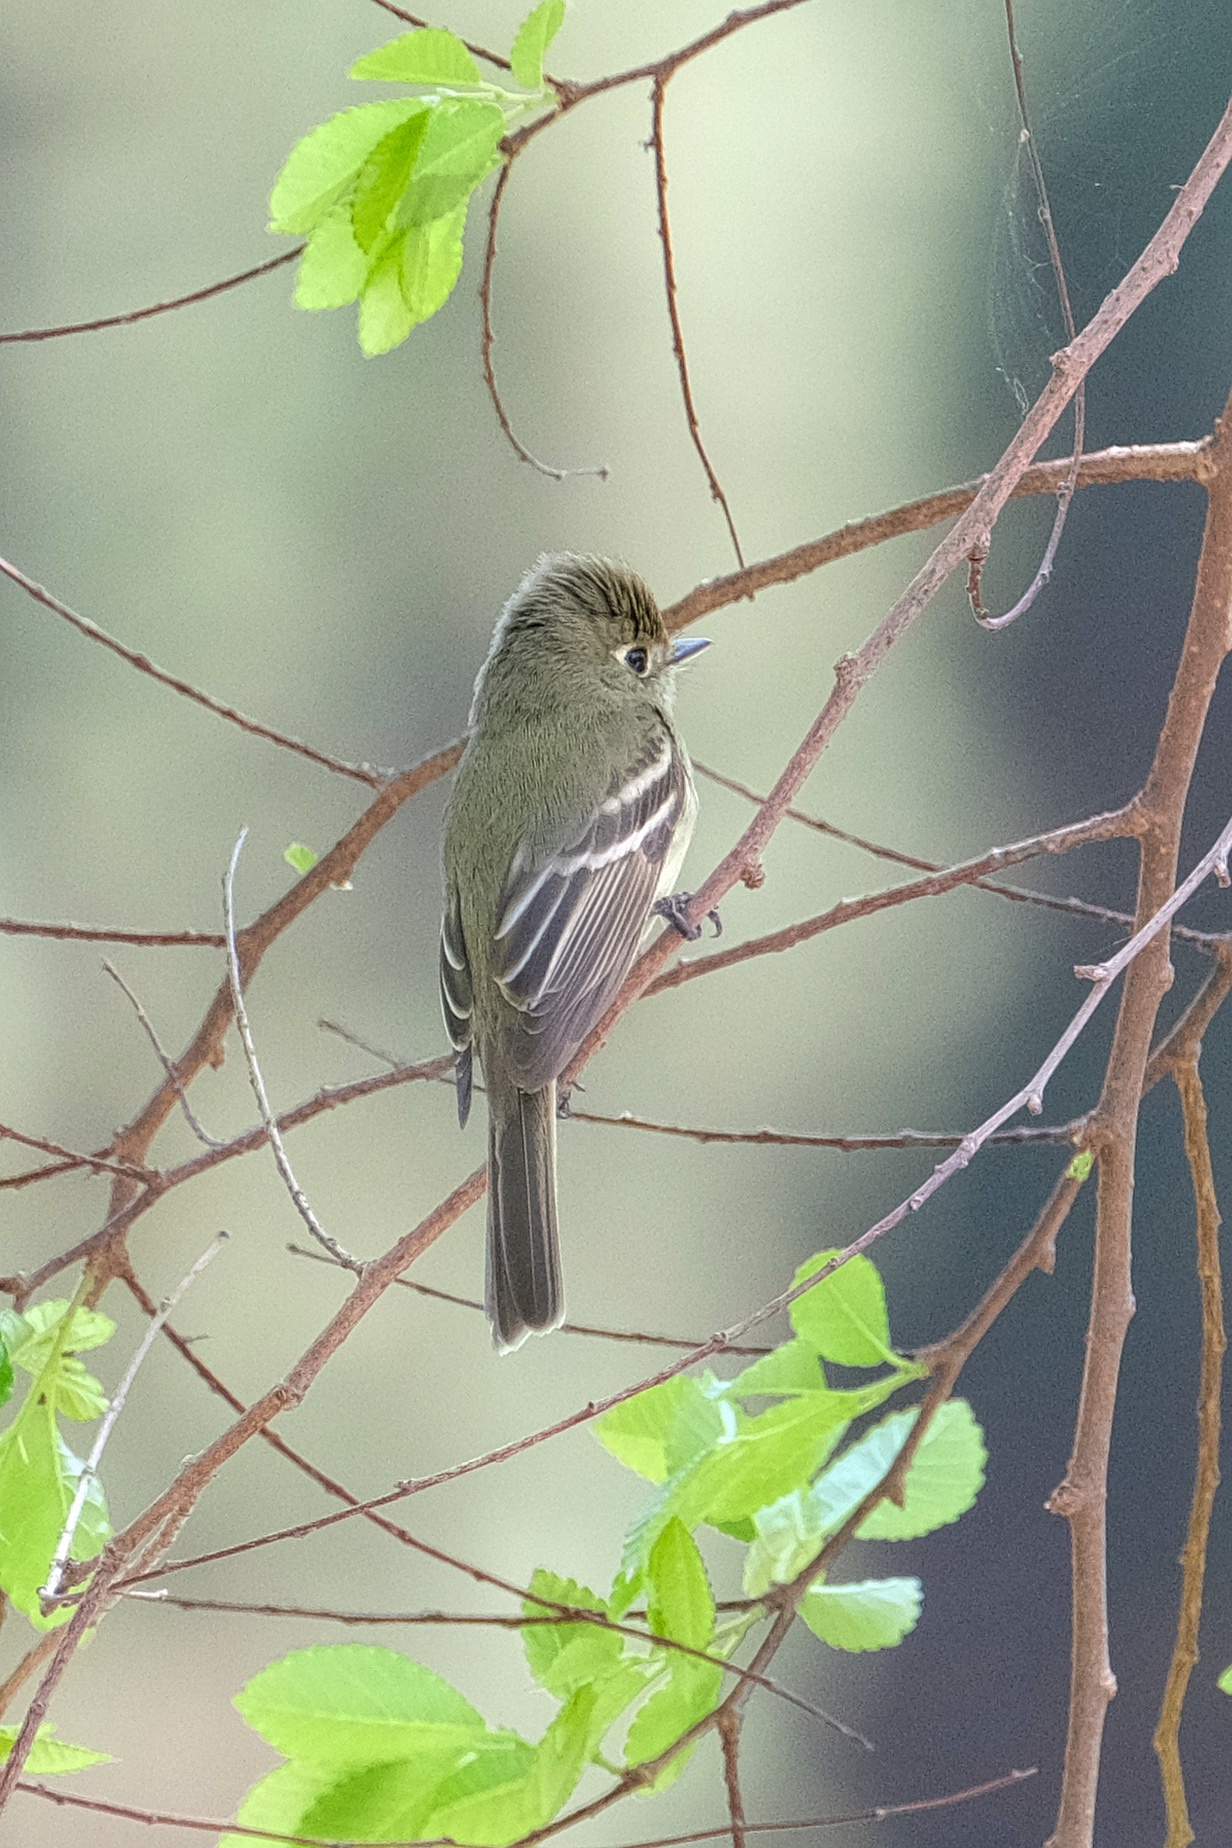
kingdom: Animalia
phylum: Chordata
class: Aves
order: Passeriformes
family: Tyrannidae
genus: Empidonax
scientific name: Empidonax difficilis
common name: Pacific-slope flycatcher
